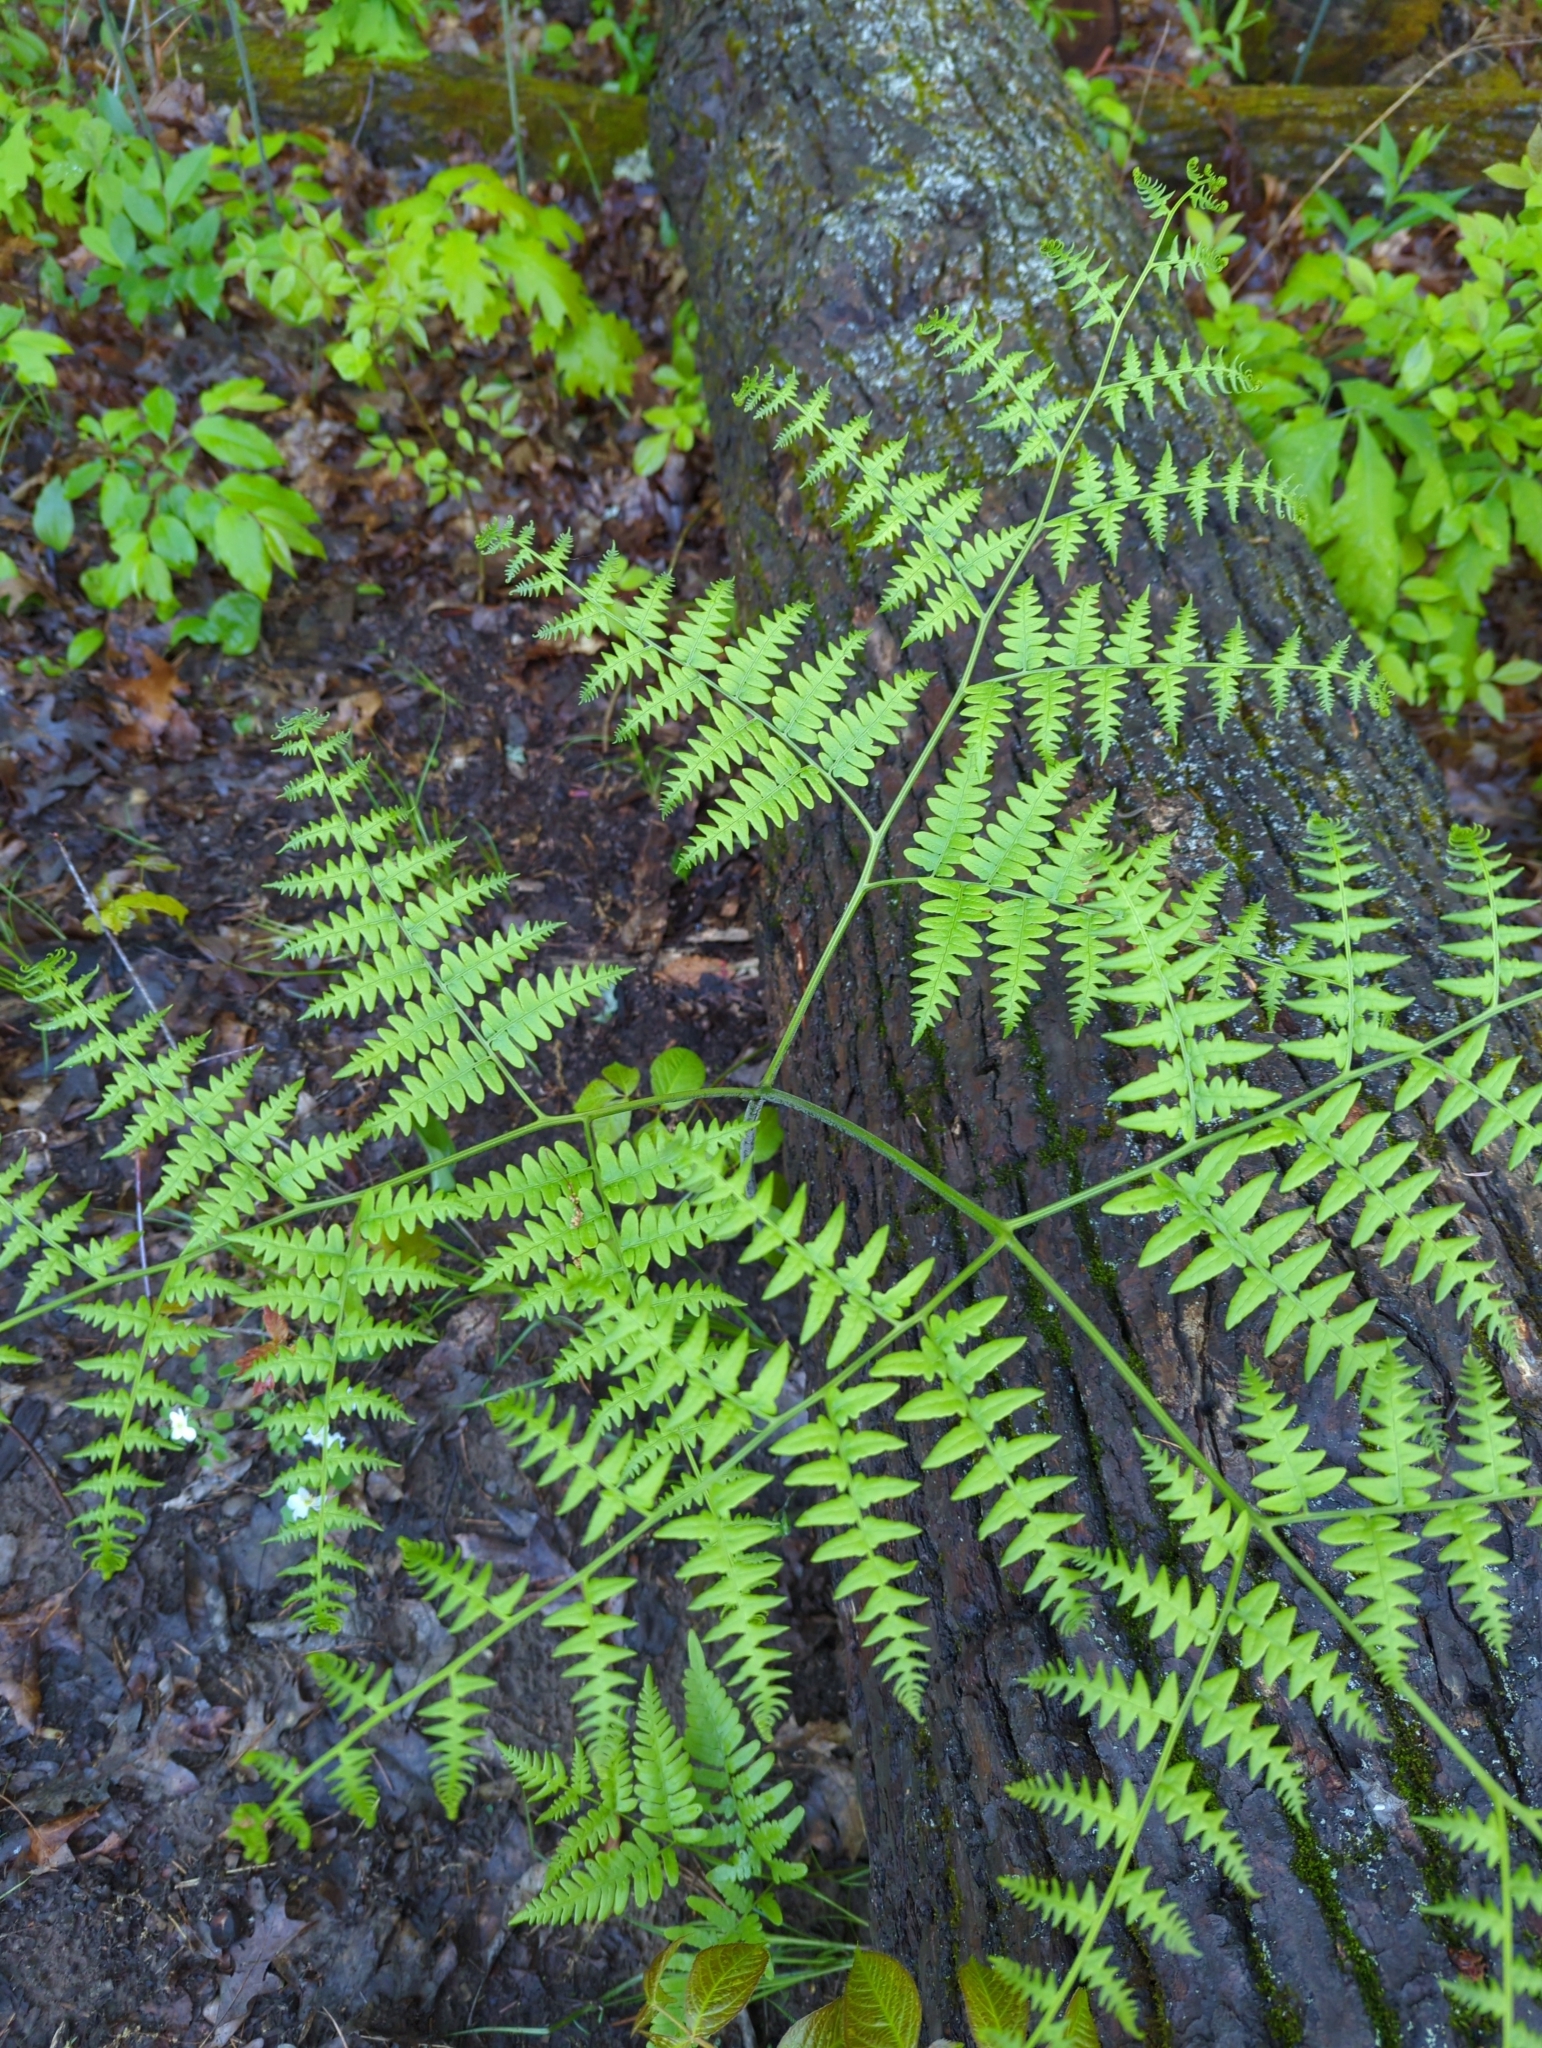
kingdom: Plantae
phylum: Tracheophyta
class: Polypodiopsida
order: Polypodiales
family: Dennstaedtiaceae
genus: Pteridium
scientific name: Pteridium aquilinum
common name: Bracken
